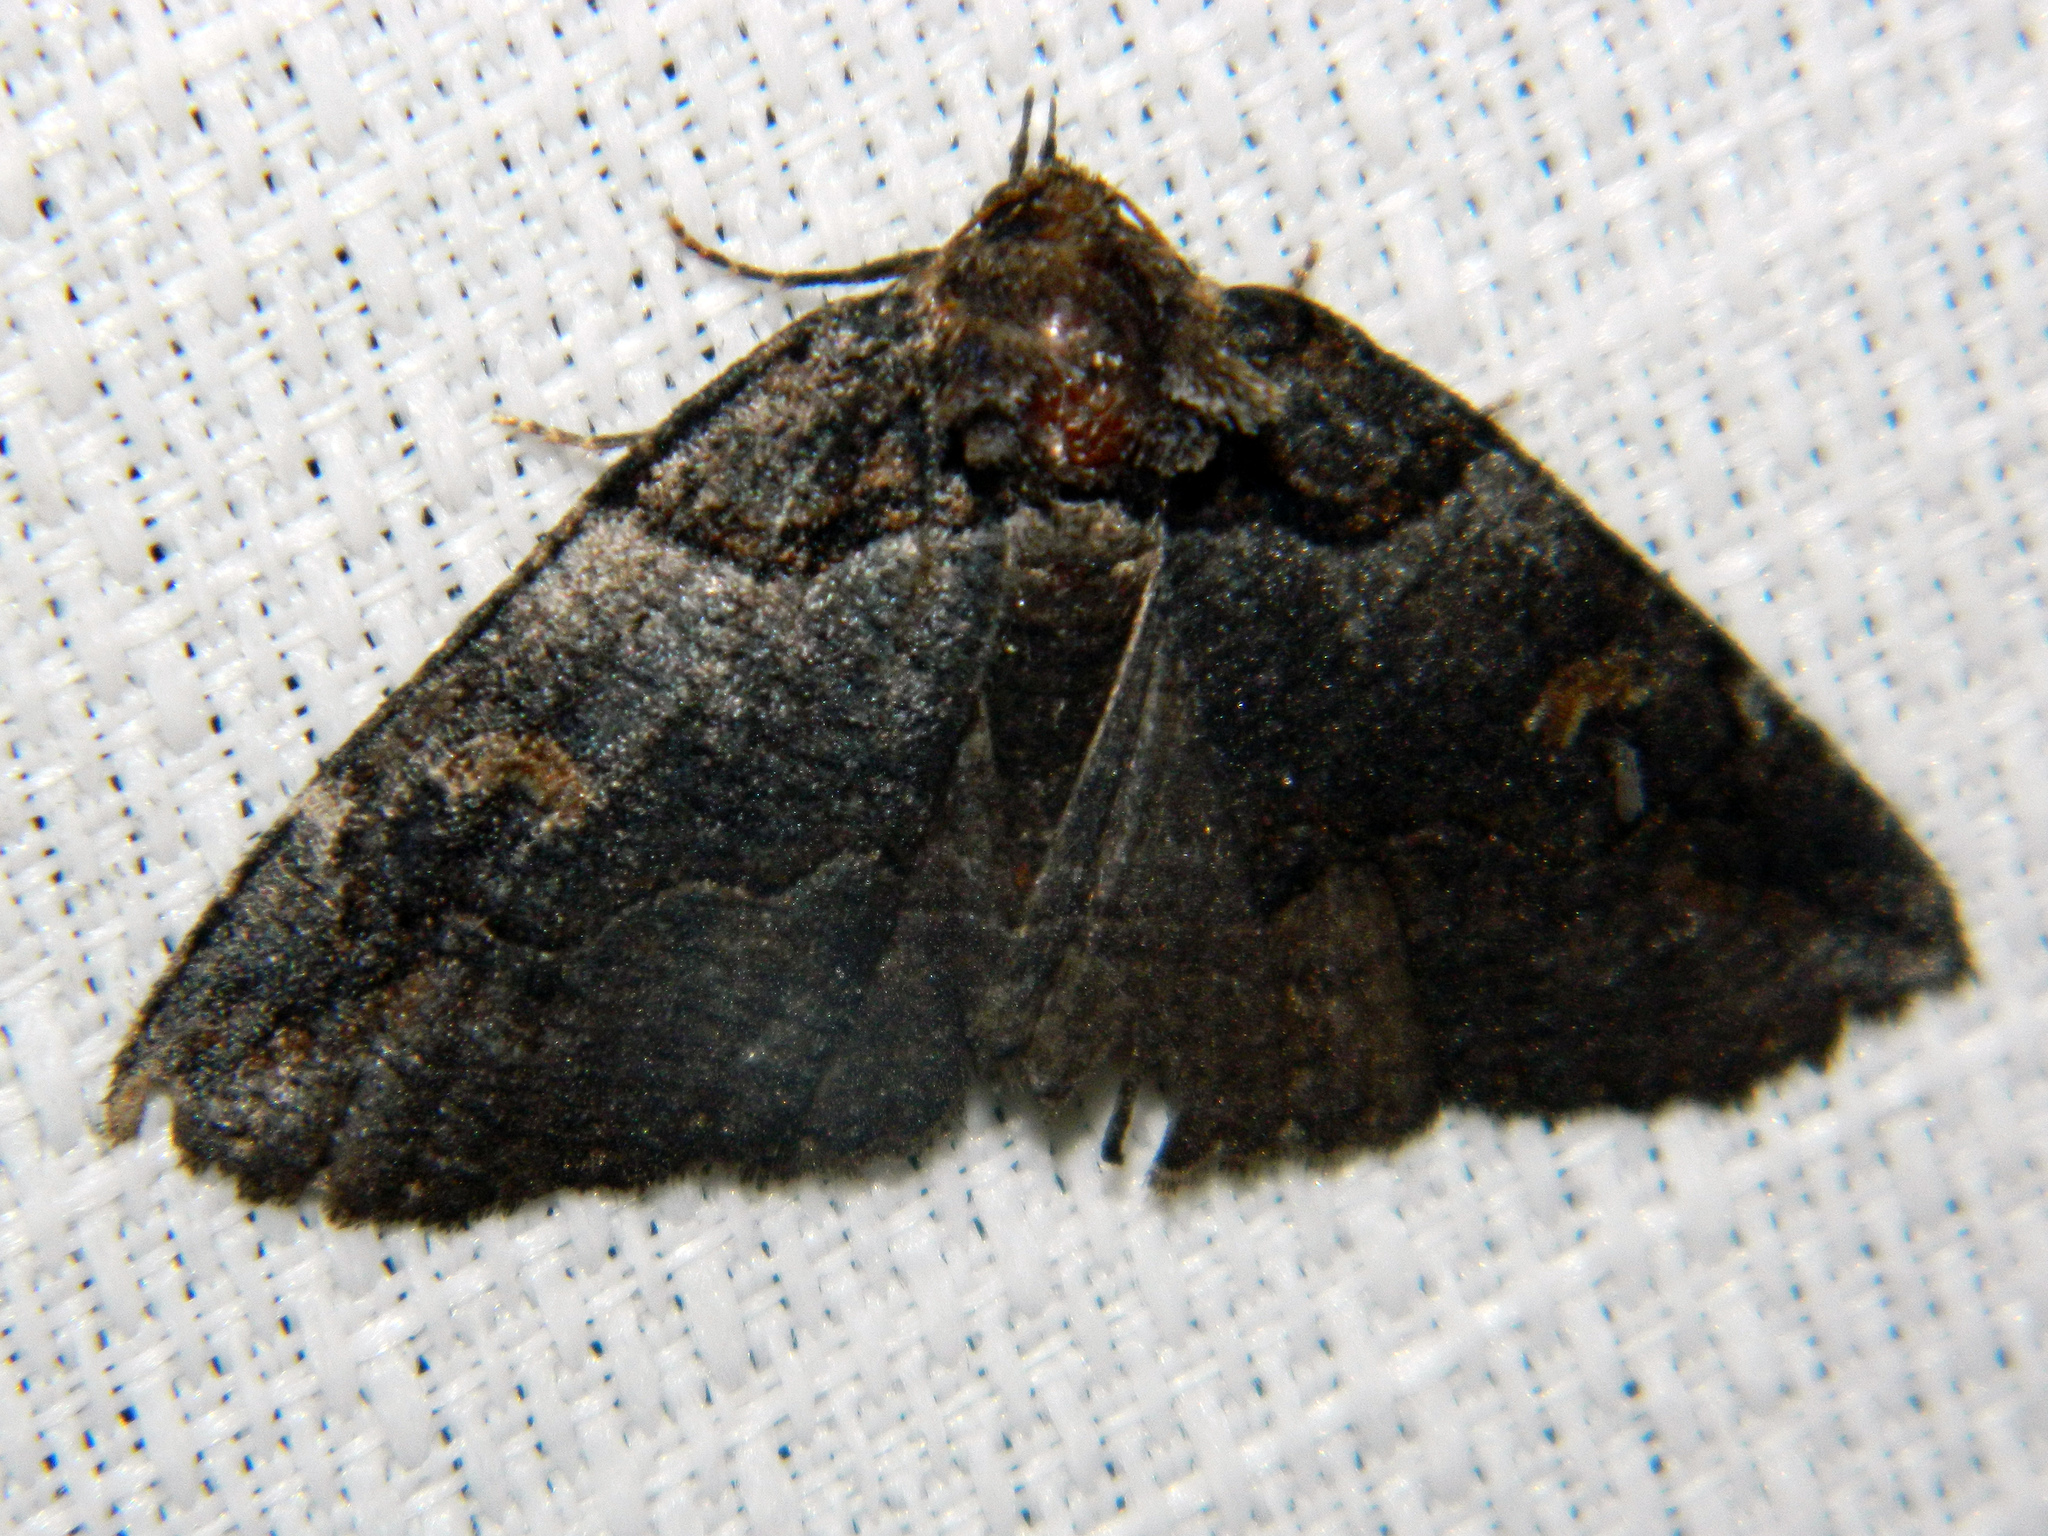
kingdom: Animalia
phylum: Arthropoda
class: Insecta
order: Lepidoptera
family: Erebidae
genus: Zale
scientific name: Zale intenta
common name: Intent zale moth
